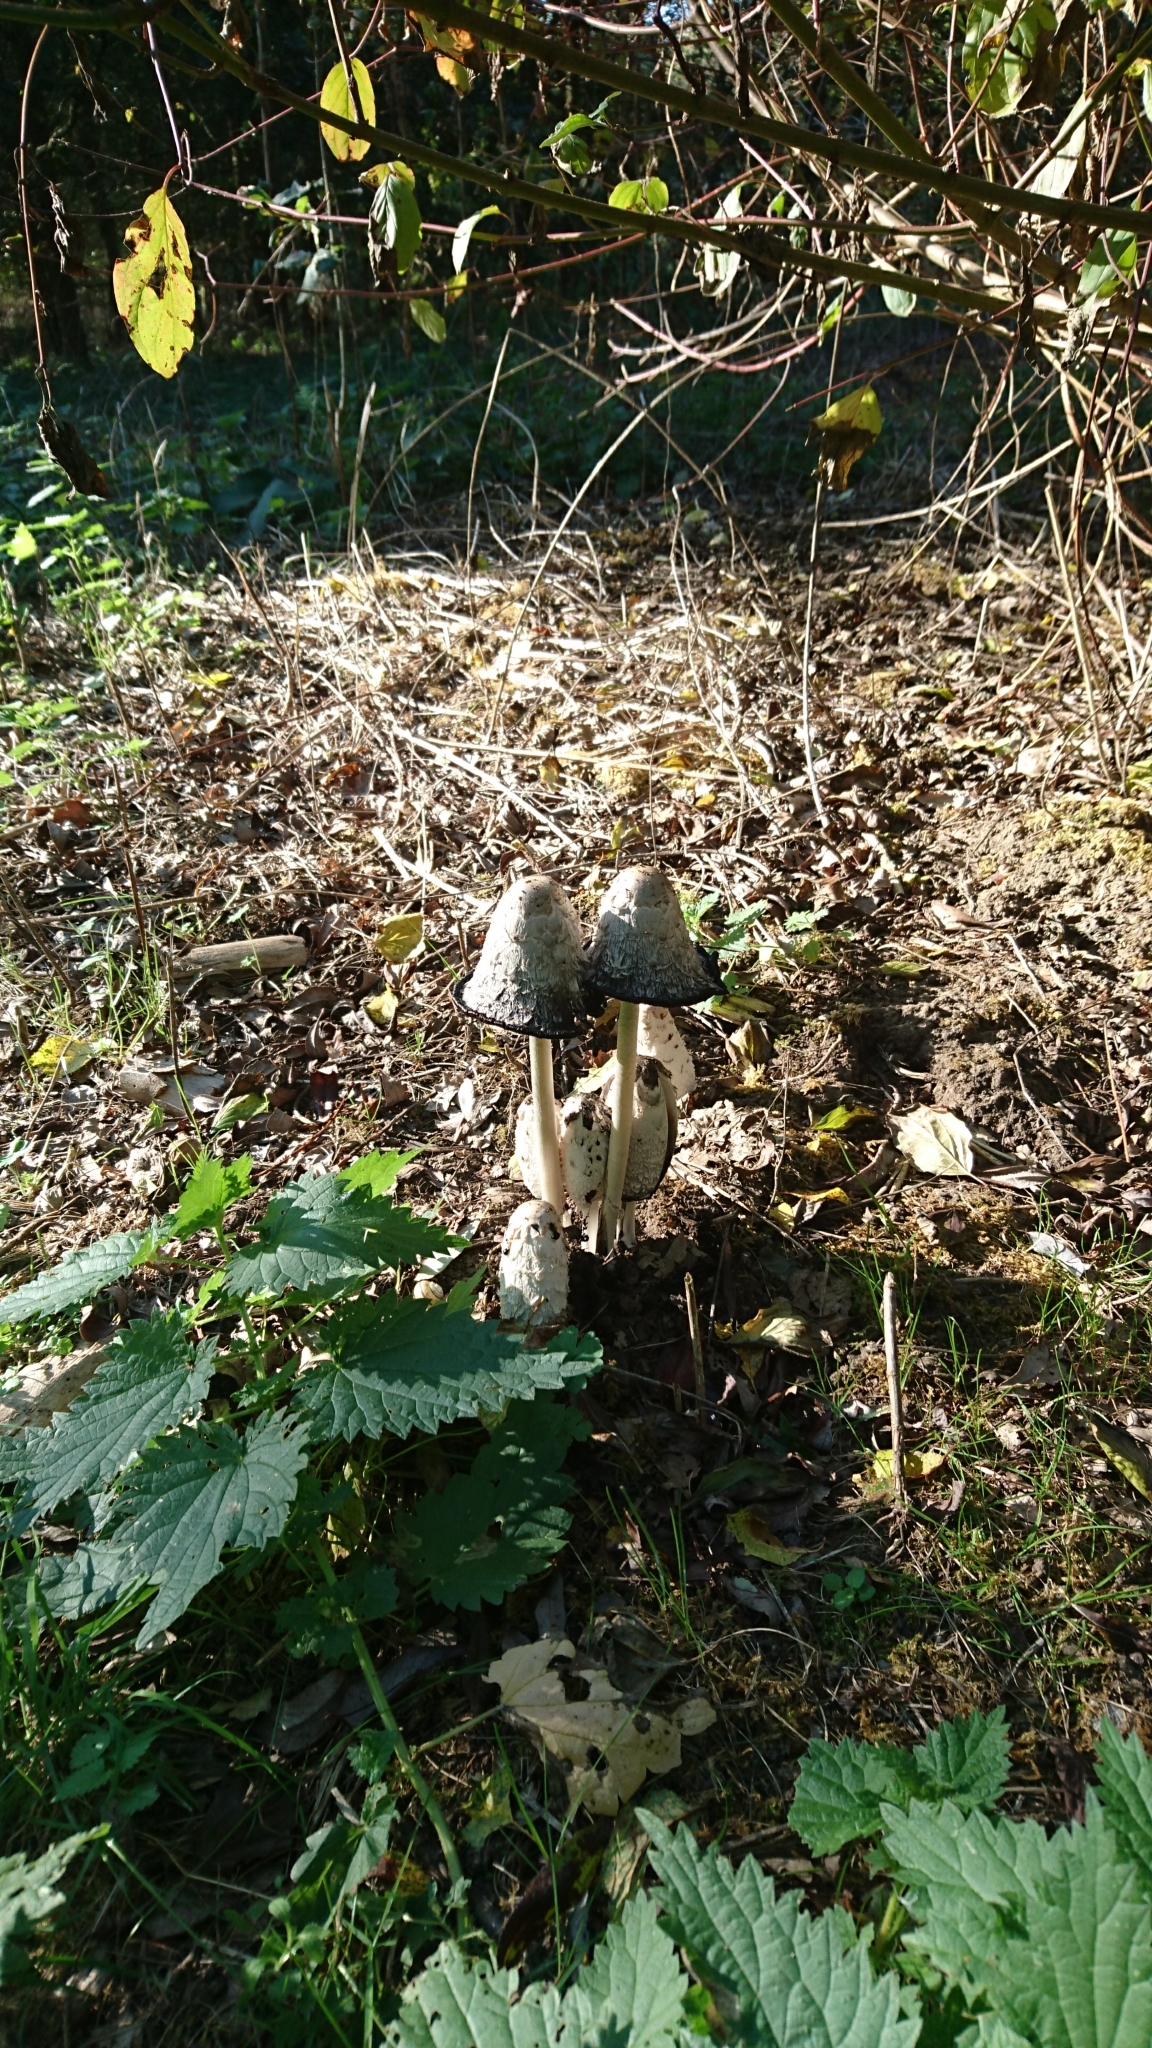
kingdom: Fungi
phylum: Basidiomycota
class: Agaricomycetes
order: Agaricales
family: Agaricaceae
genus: Coprinus
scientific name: Coprinus comatus
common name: Lawyer's wig
